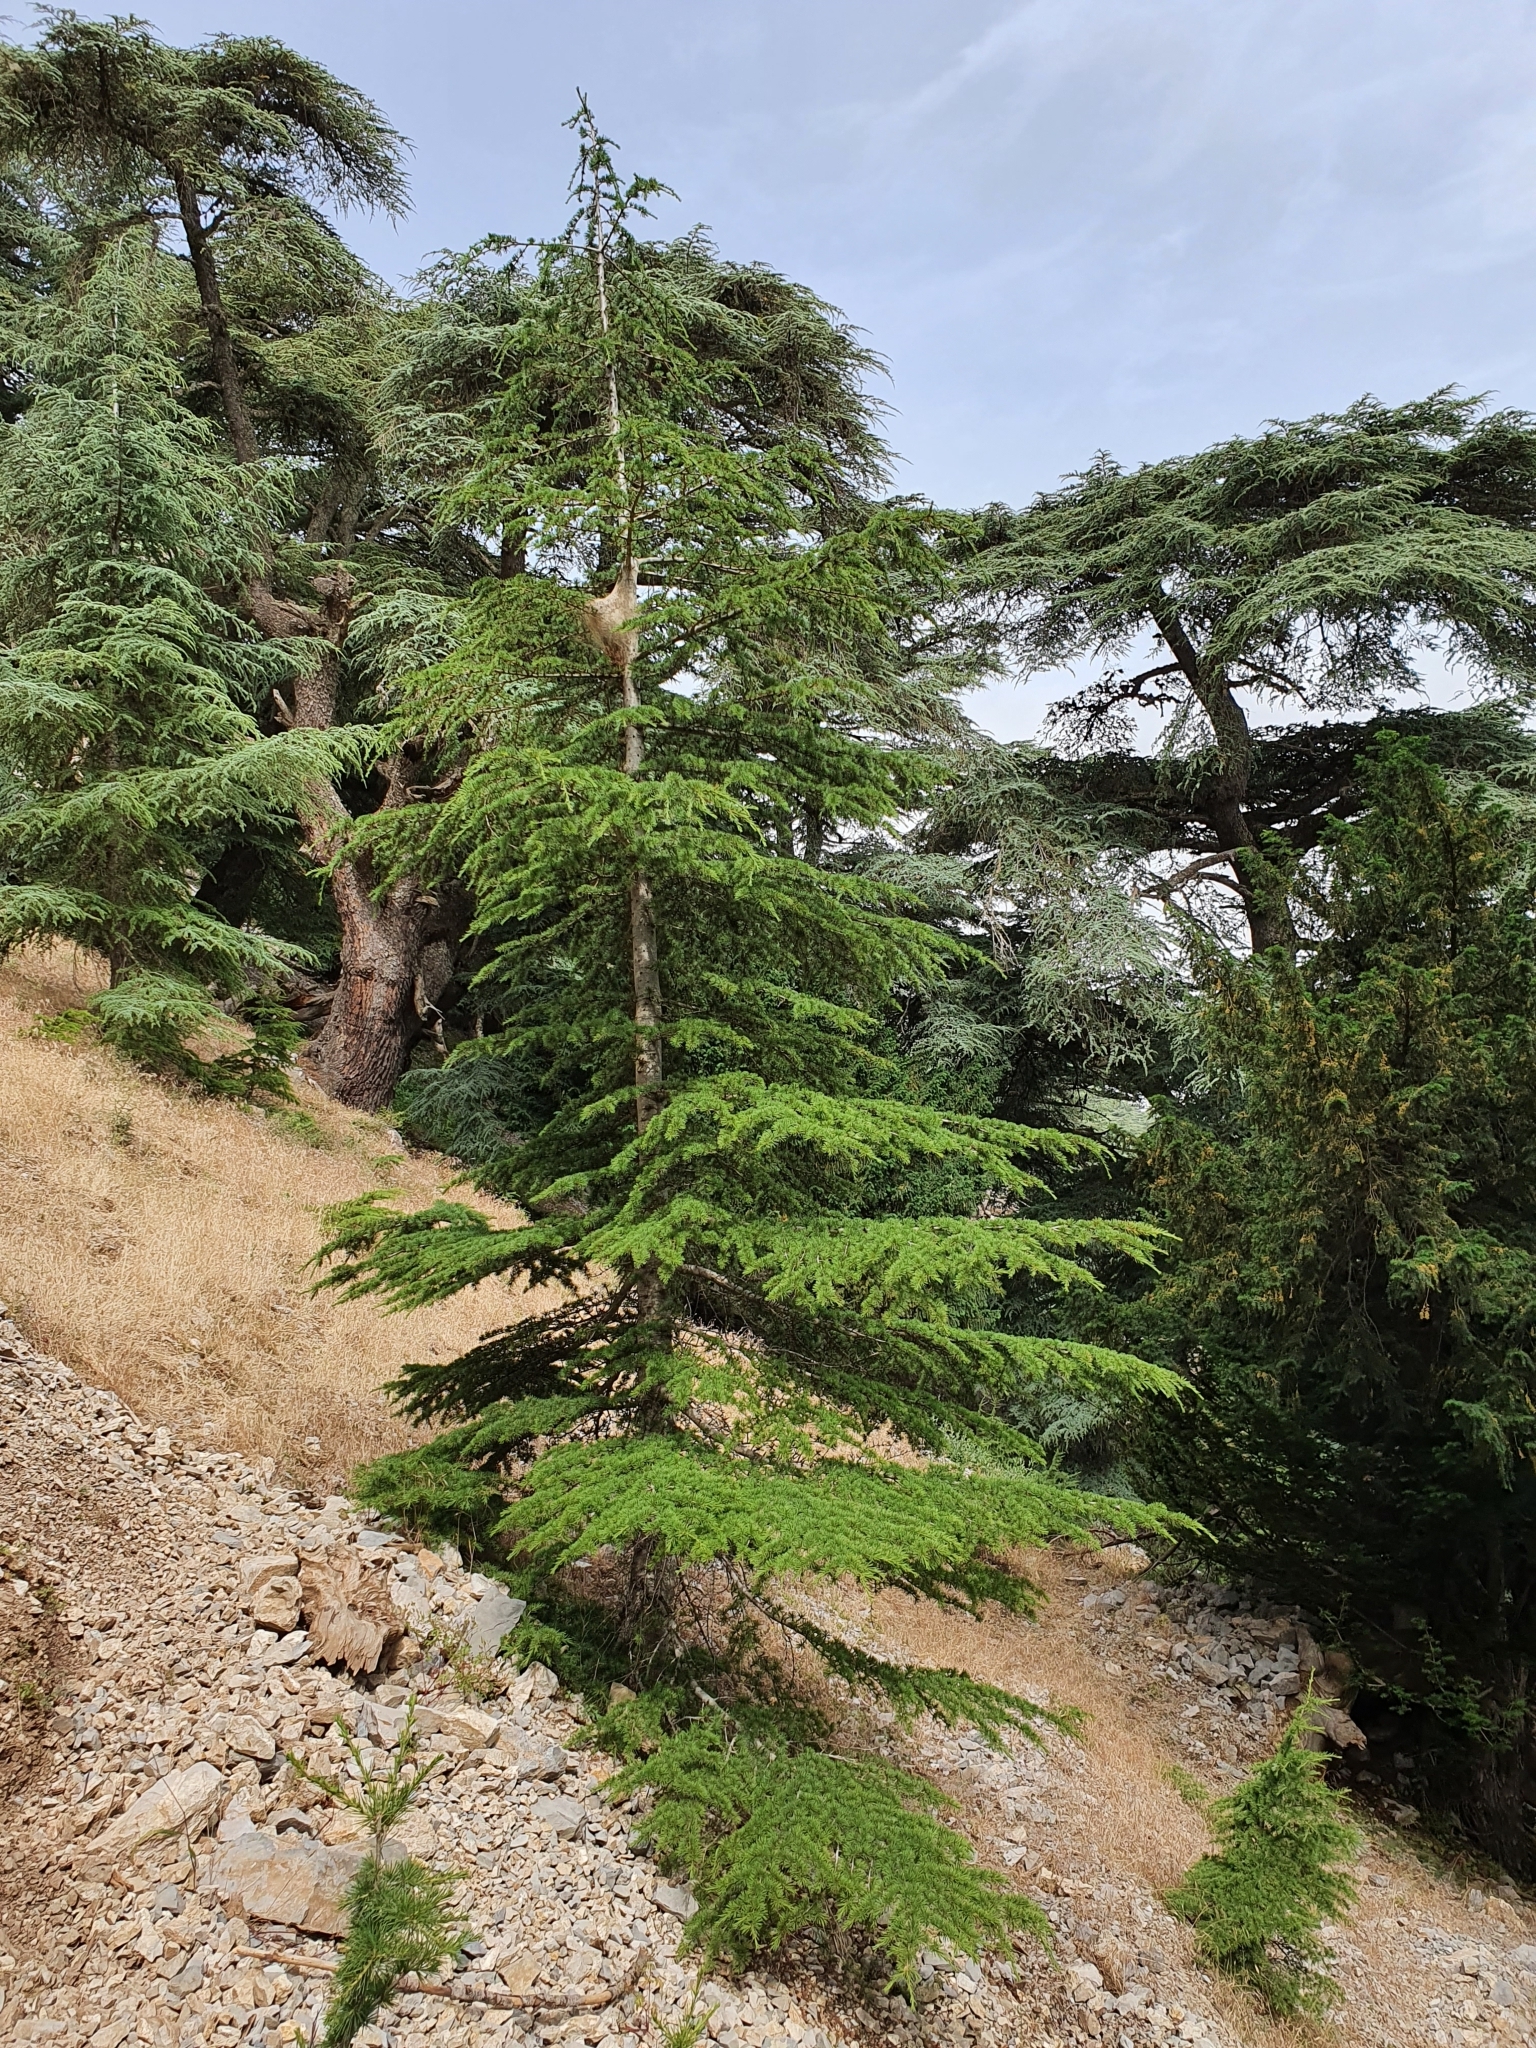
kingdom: Plantae
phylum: Tracheophyta
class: Pinopsida
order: Pinales
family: Pinaceae
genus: Cedrus
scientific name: Cedrus atlantica
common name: Atlas cedar
